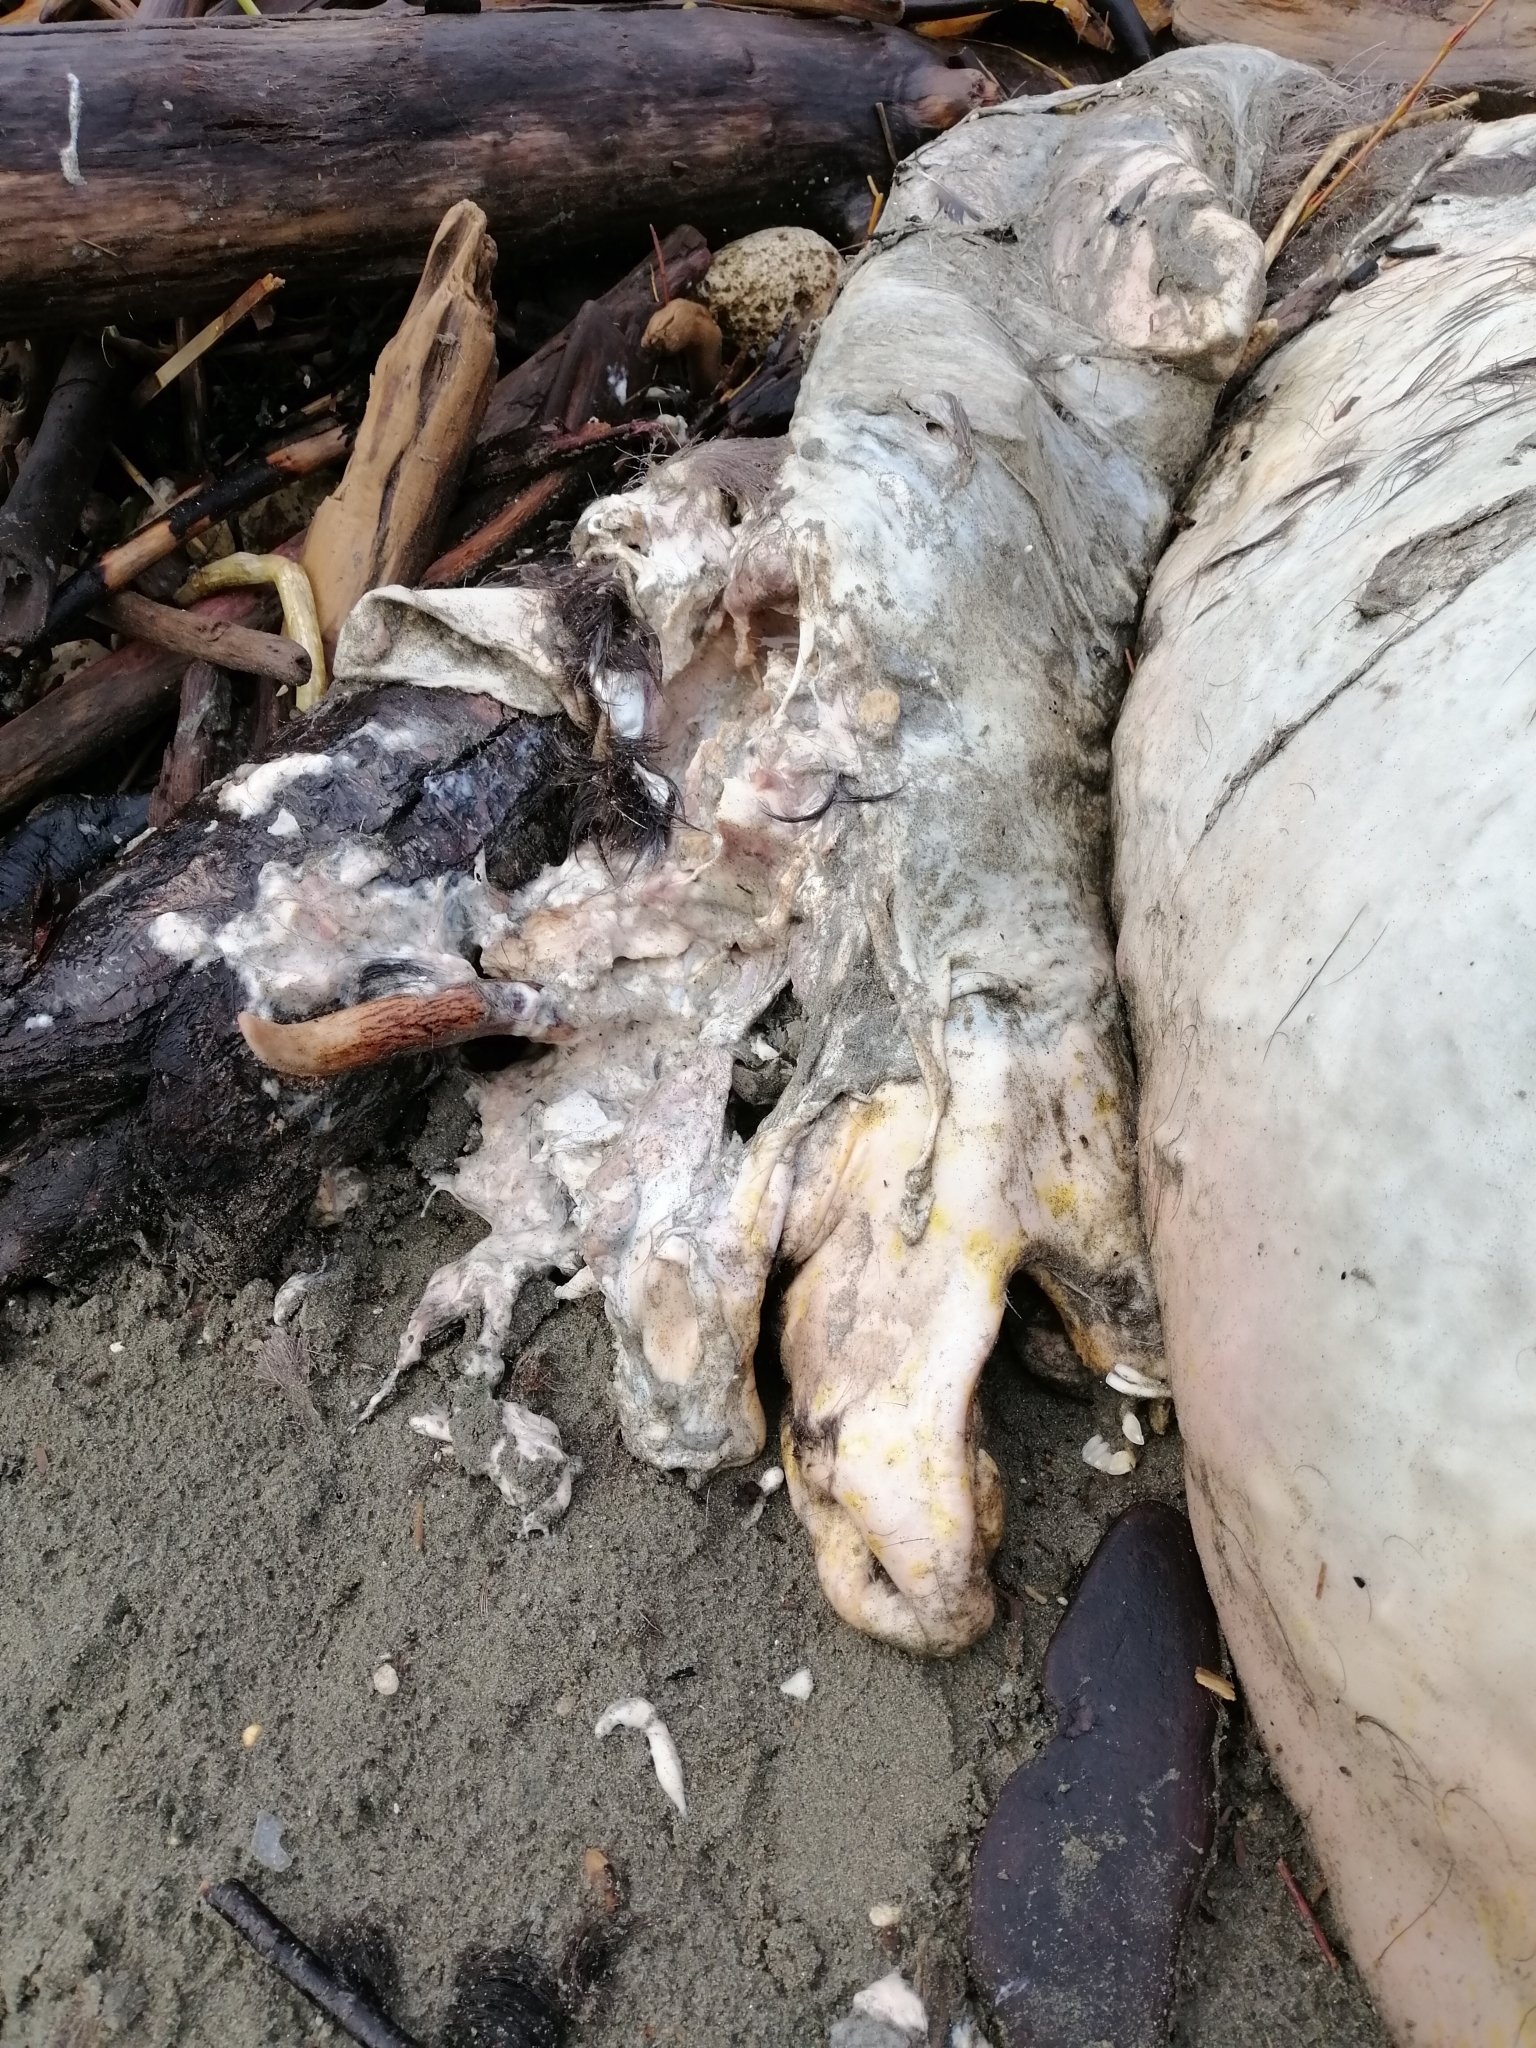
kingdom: Animalia
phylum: Chordata
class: Mammalia
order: Artiodactyla
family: Cervidae
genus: Dama
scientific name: Dama dama
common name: Fallow deer
